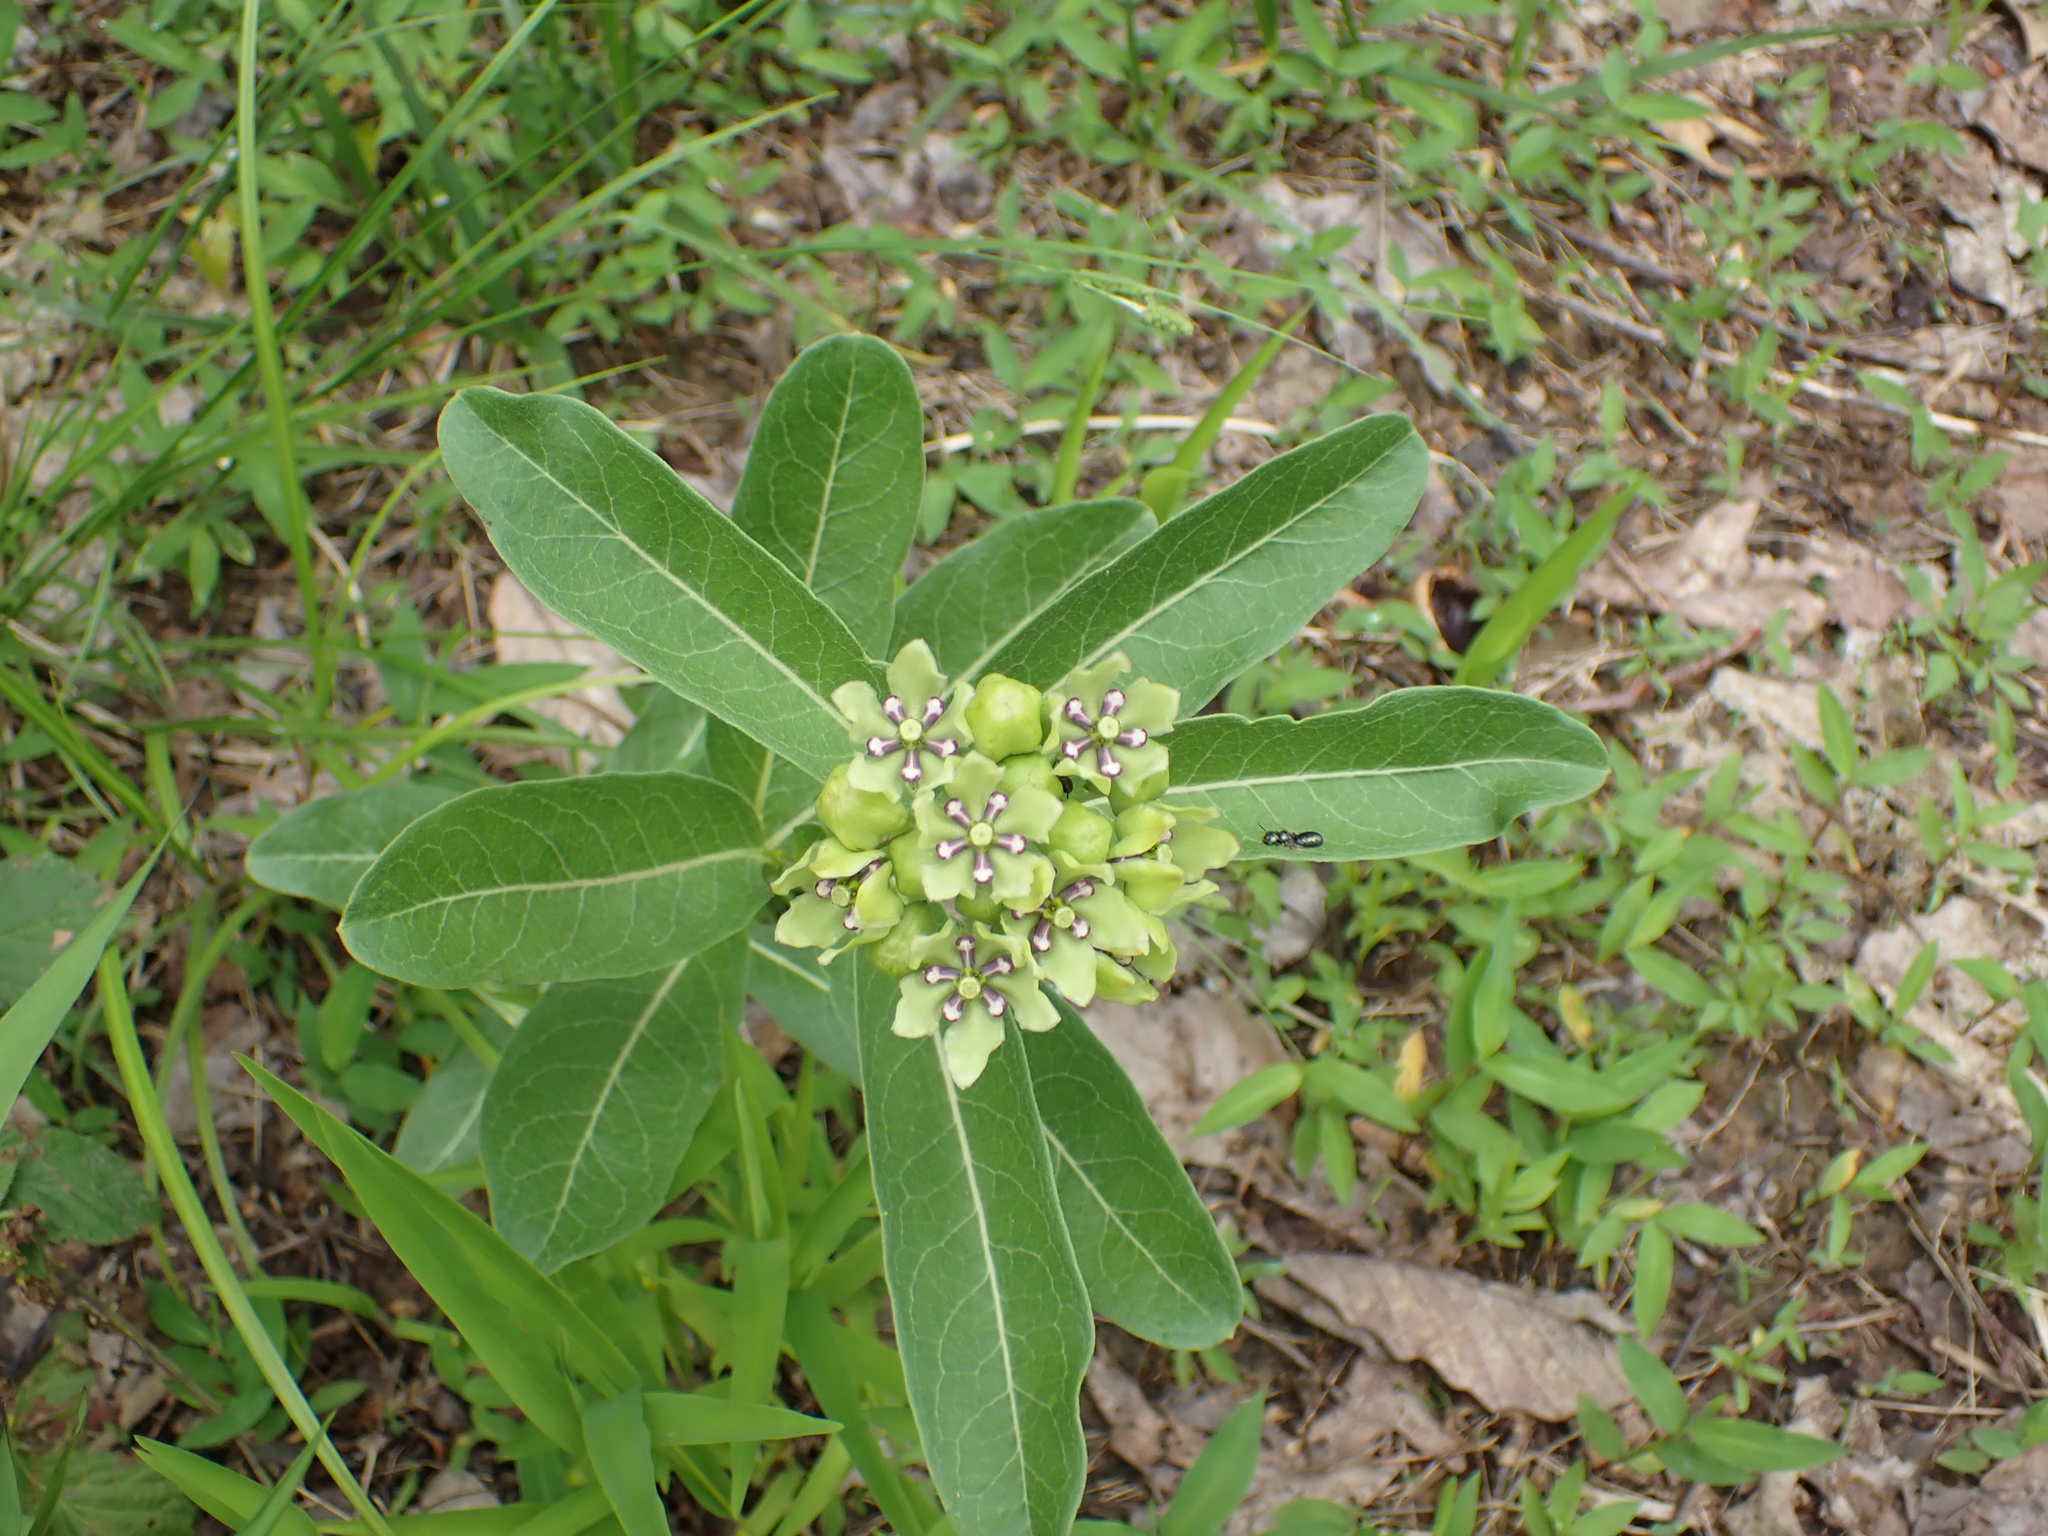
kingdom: Plantae
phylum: Tracheophyta
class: Magnoliopsida
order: Gentianales
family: Apocynaceae
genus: Asclepias
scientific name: Asclepias viridis
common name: Antelope-horns
